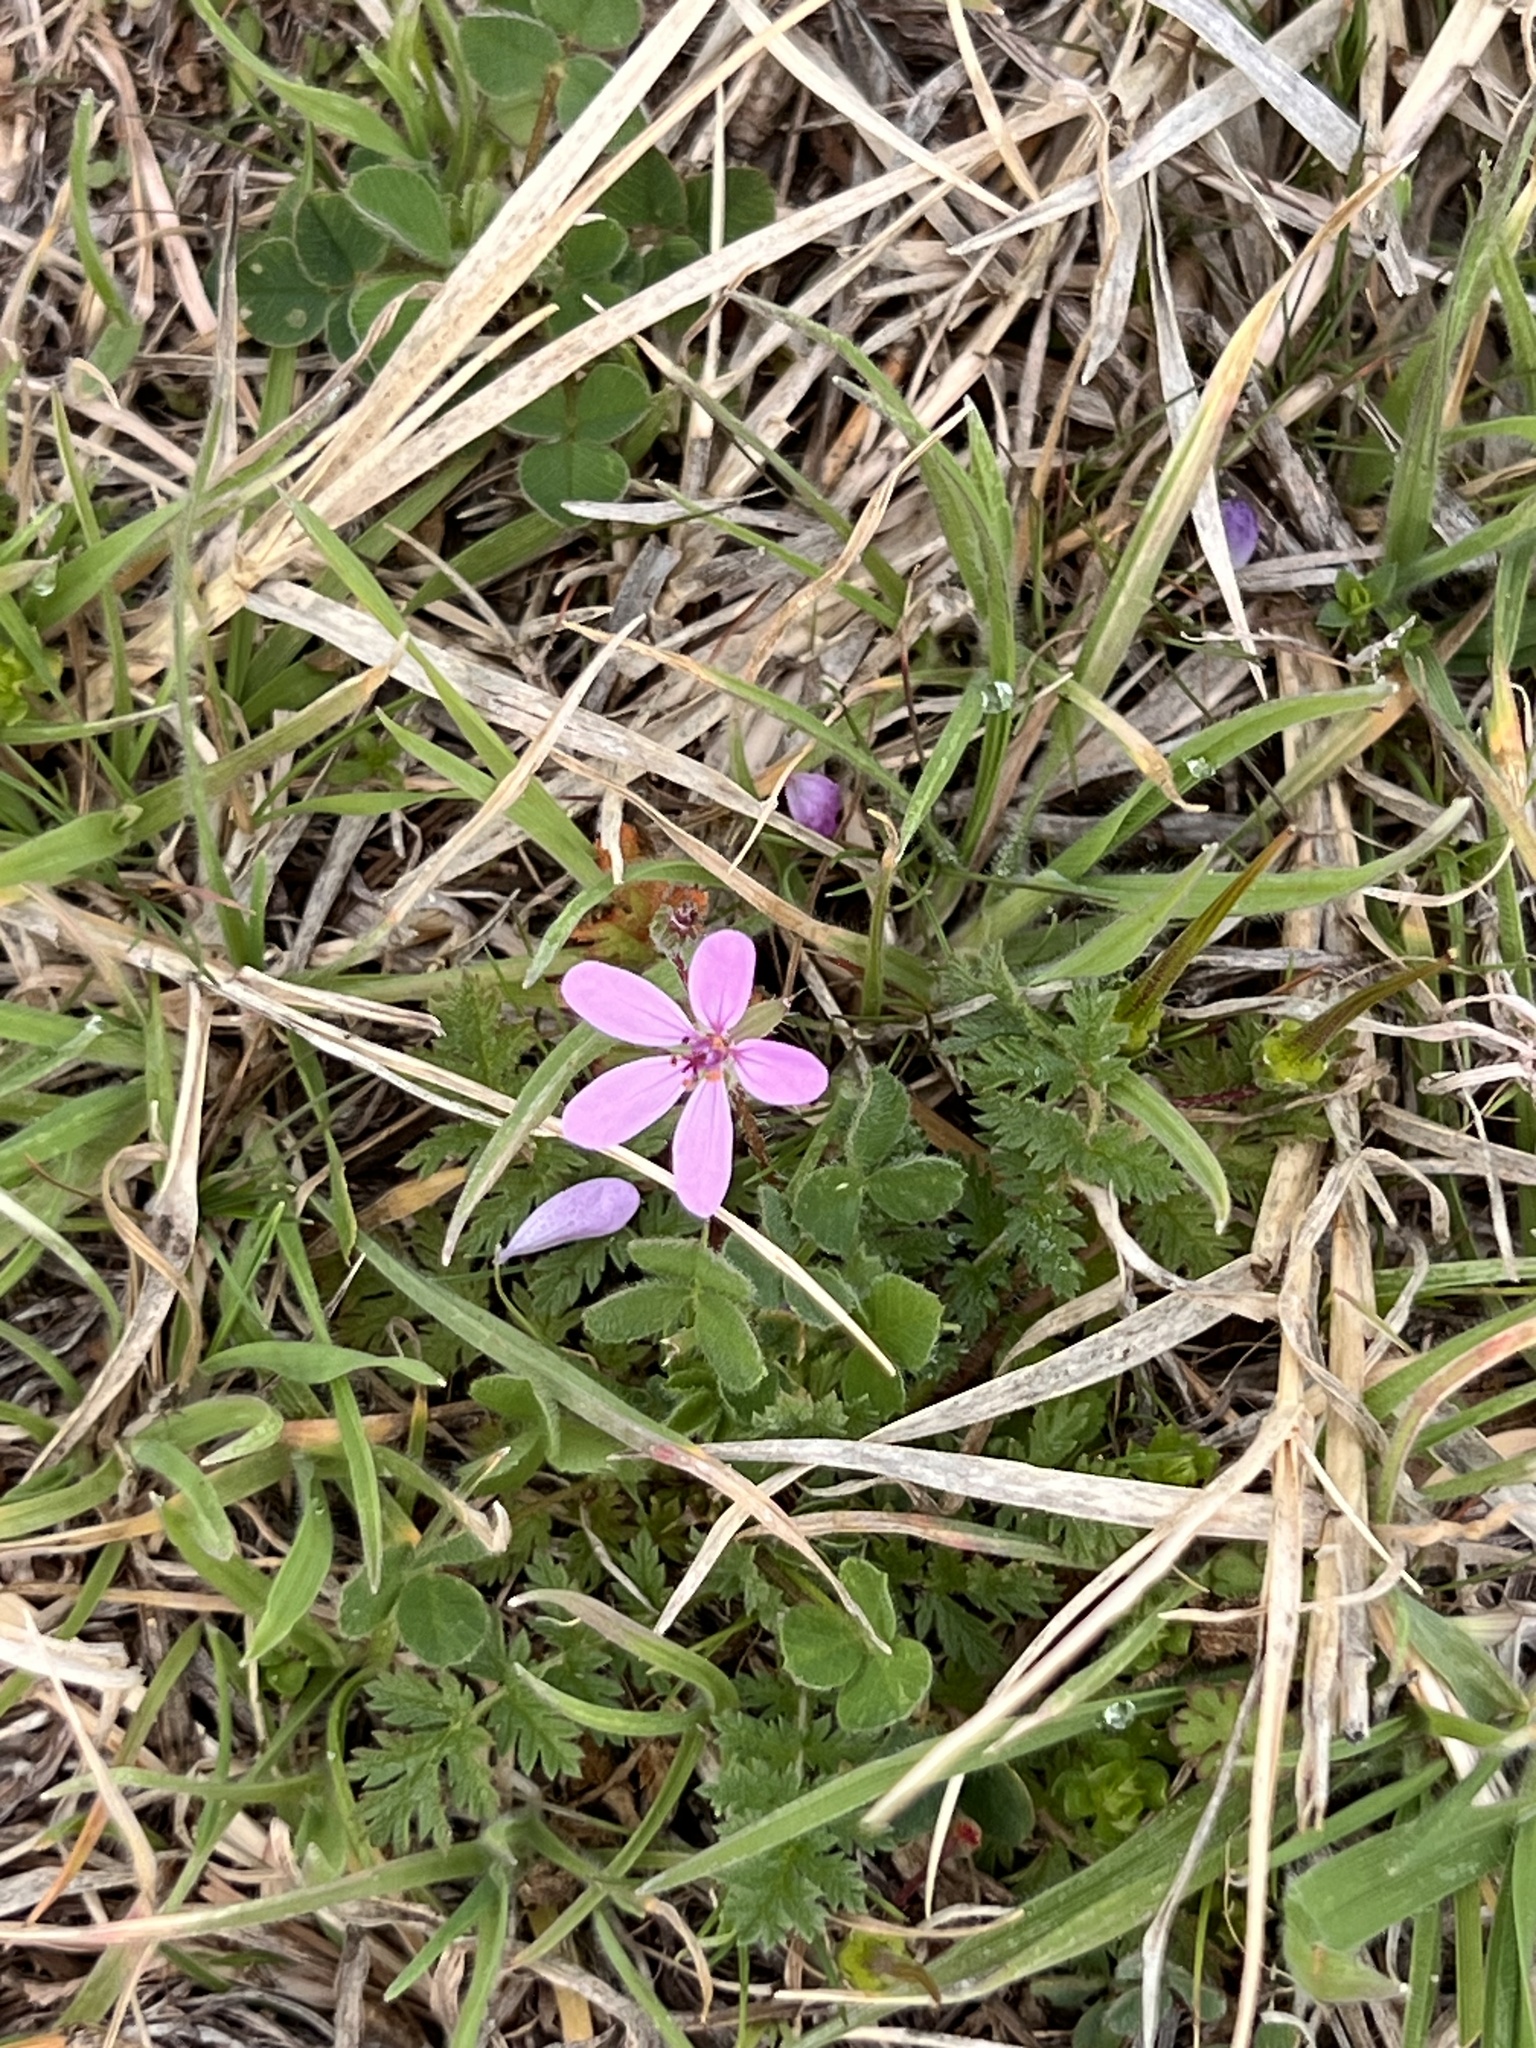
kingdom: Plantae
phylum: Tracheophyta
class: Magnoliopsida
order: Geraniales
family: Geraniaceae
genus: Erodium
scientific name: Erodium cicutarium
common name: Common stork's-bill
